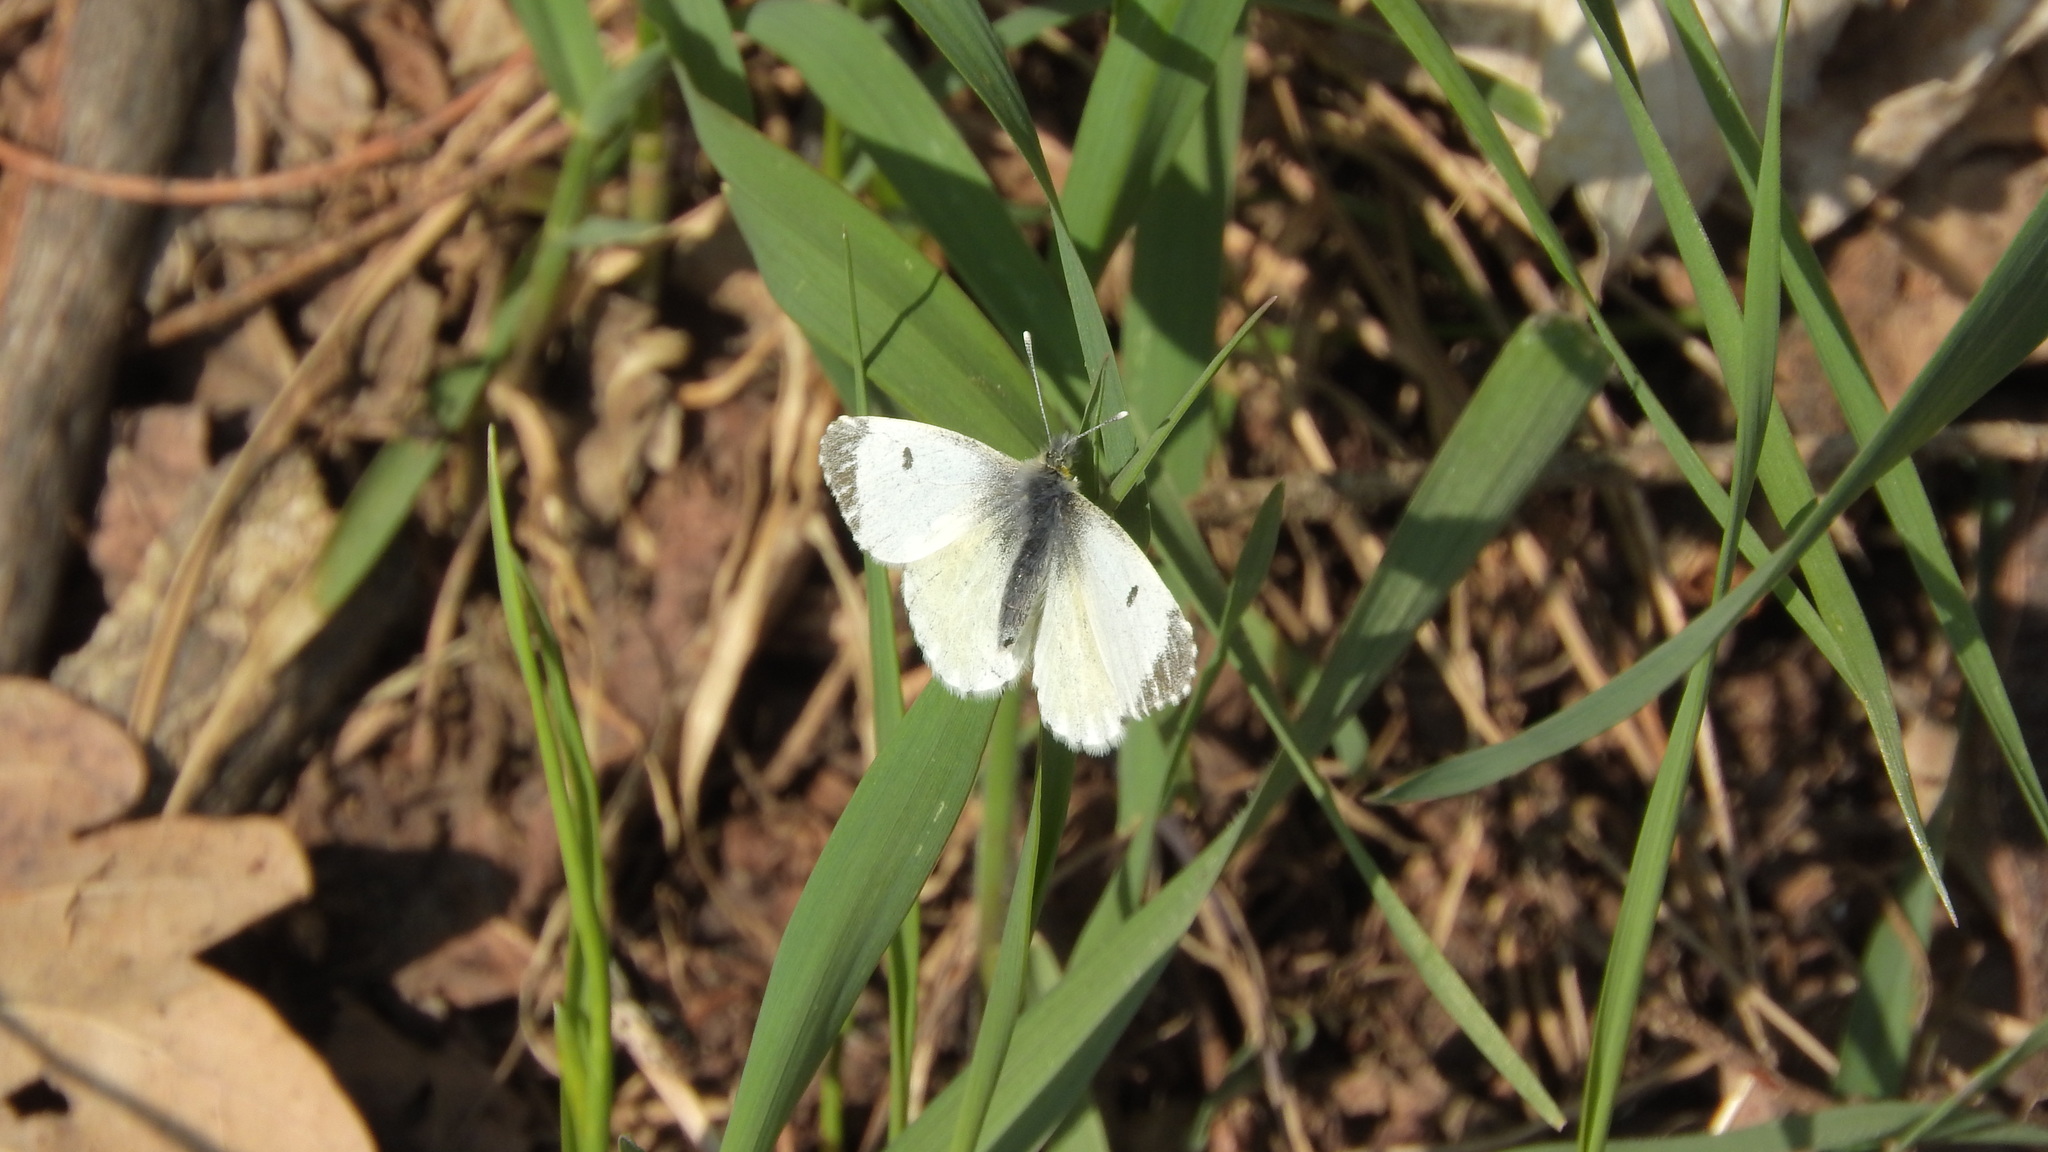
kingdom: Animalia
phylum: Arthropoda
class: Insecta
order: Lepidoptera
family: Pieridae
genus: Anthocharis
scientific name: Anthocharis cardamines
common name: Orange-tip
